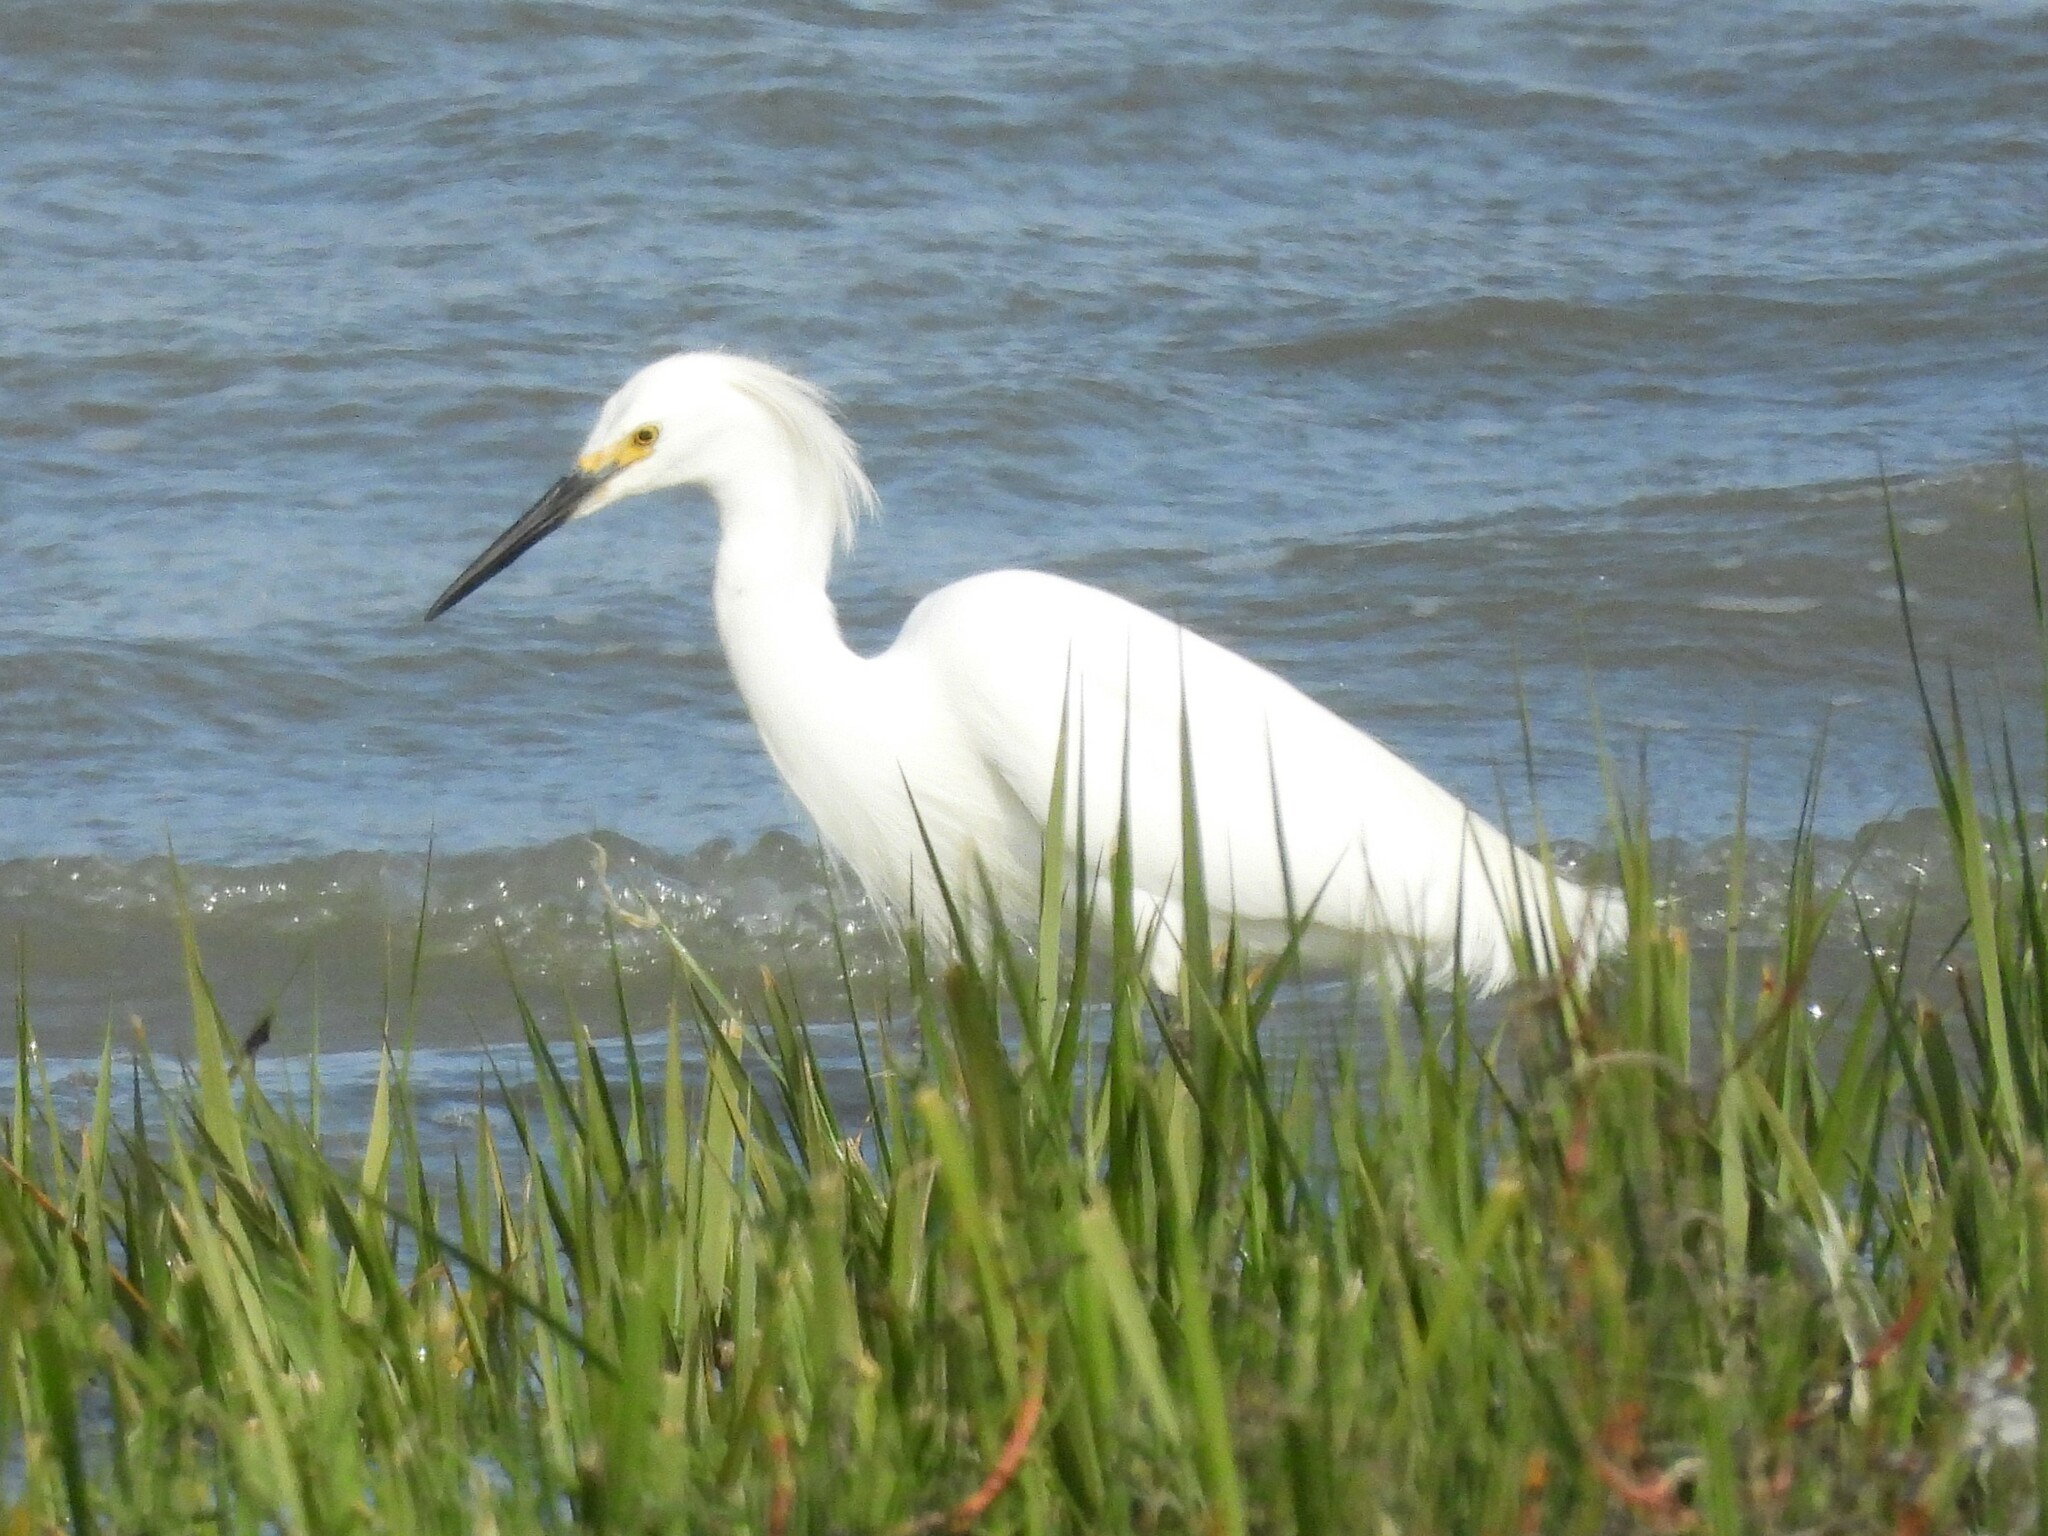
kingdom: Animalia
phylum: Chordata
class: Aves
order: Pelecaniformes
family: Ardeidae
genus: Egretta
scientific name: Egretta thula
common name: Snowy egret
